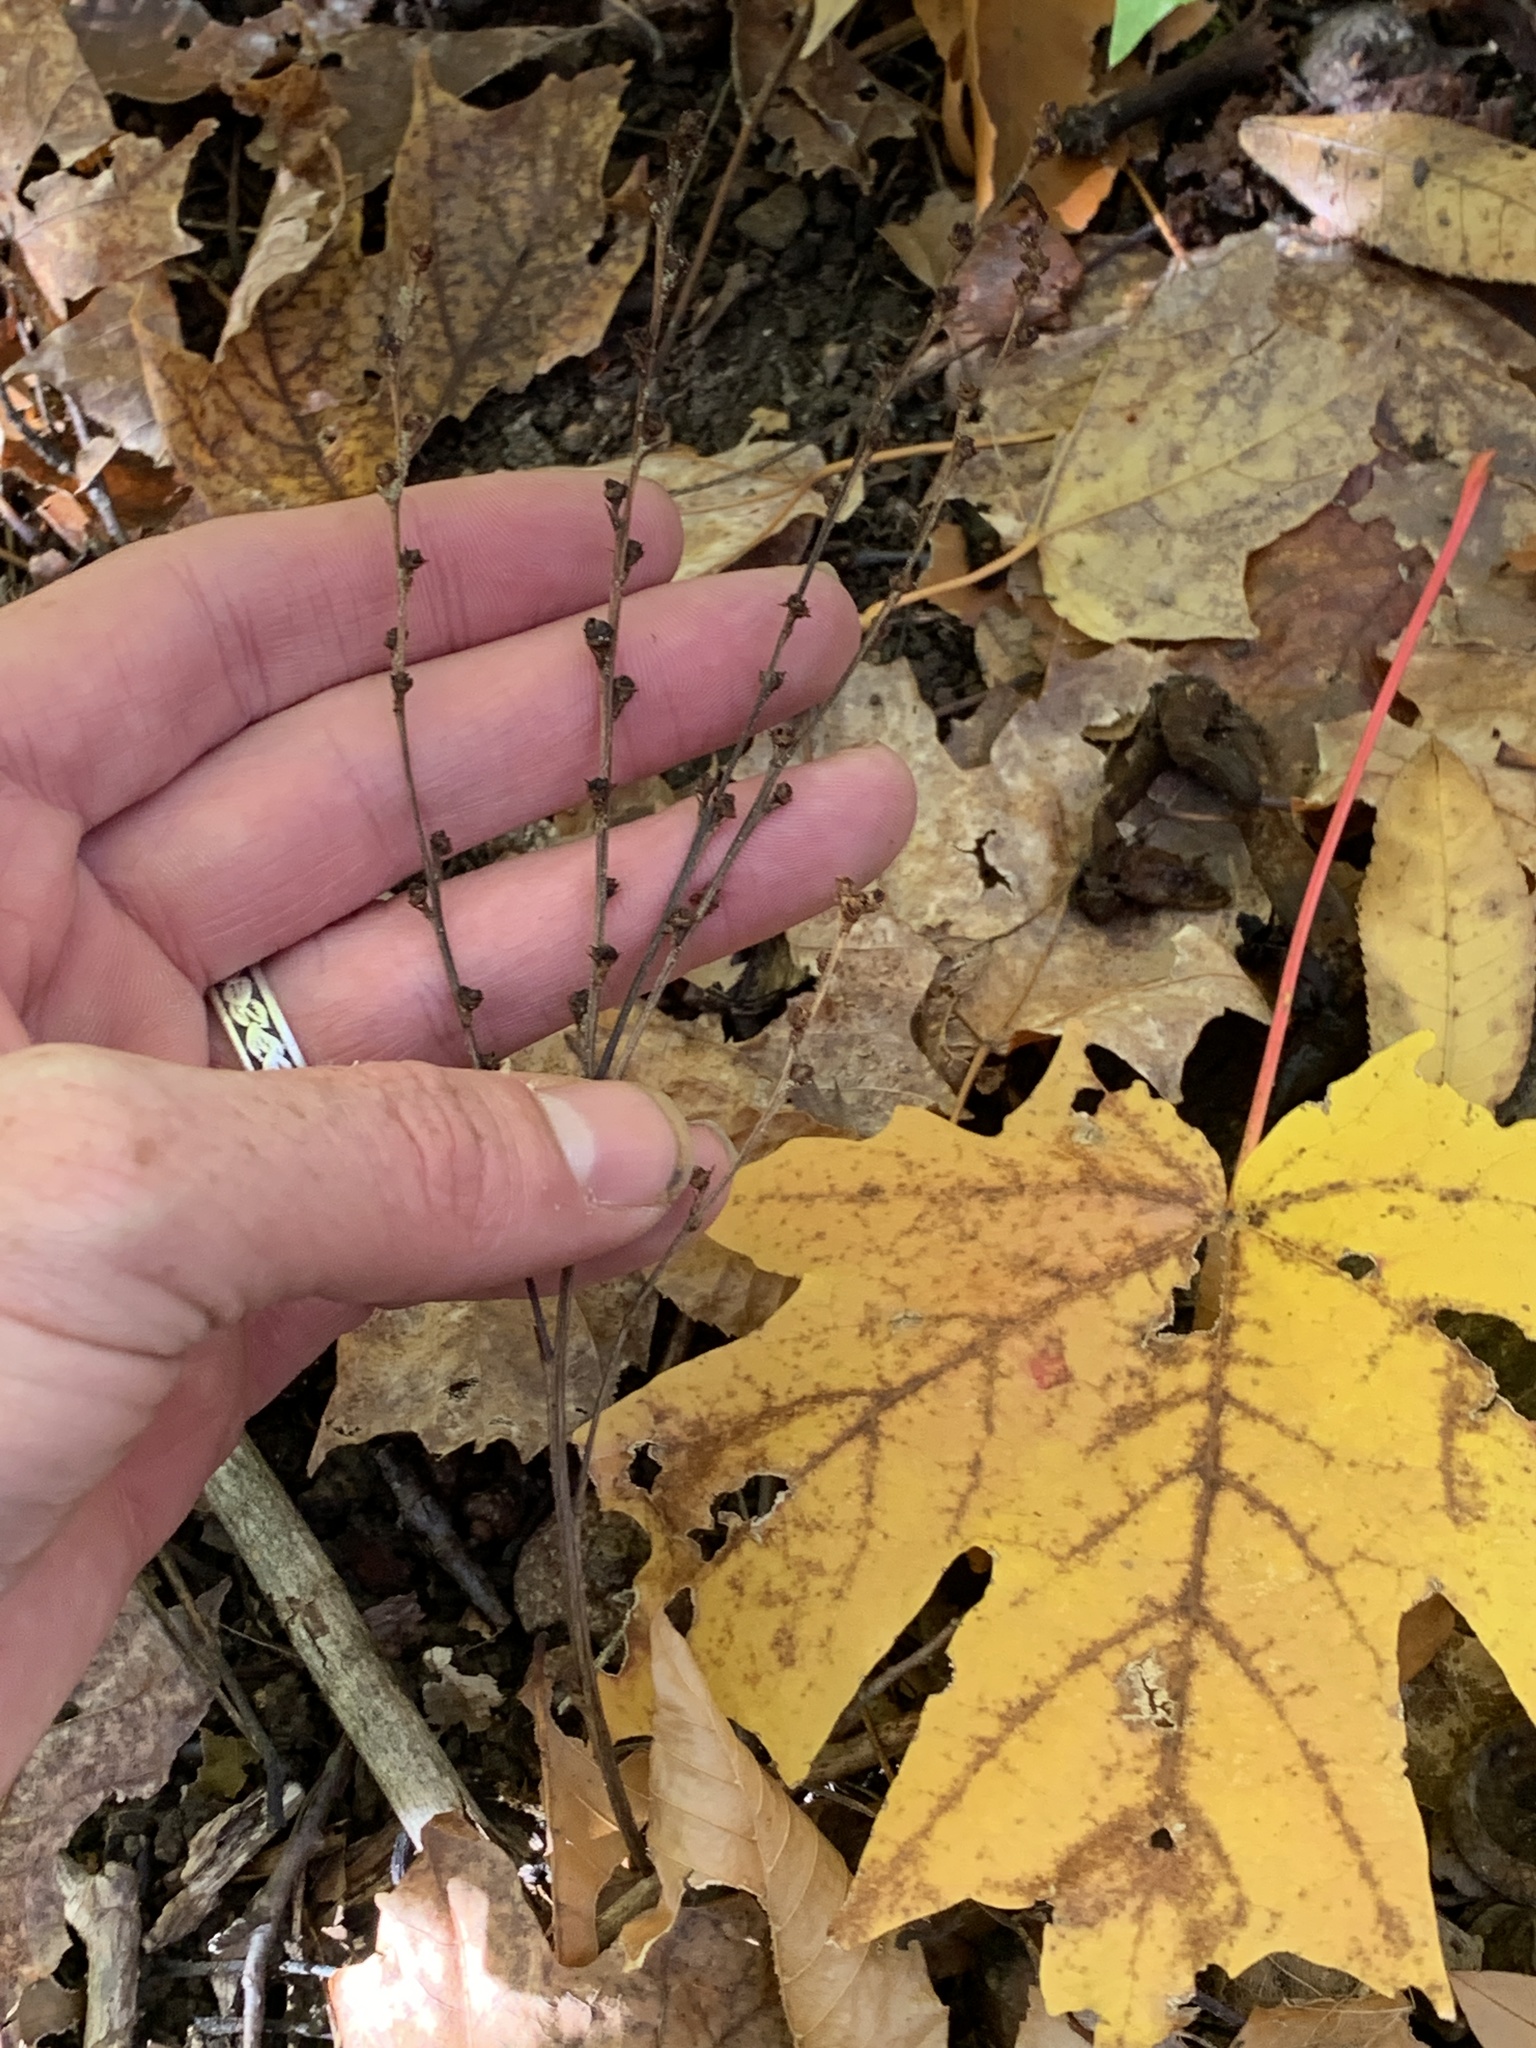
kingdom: Plantae
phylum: Tracheophyta
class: Magnoliopsida
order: Lamiales
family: Orobanchaceae
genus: Epifagus
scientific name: Epifagus virginiana
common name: Beechdrops
